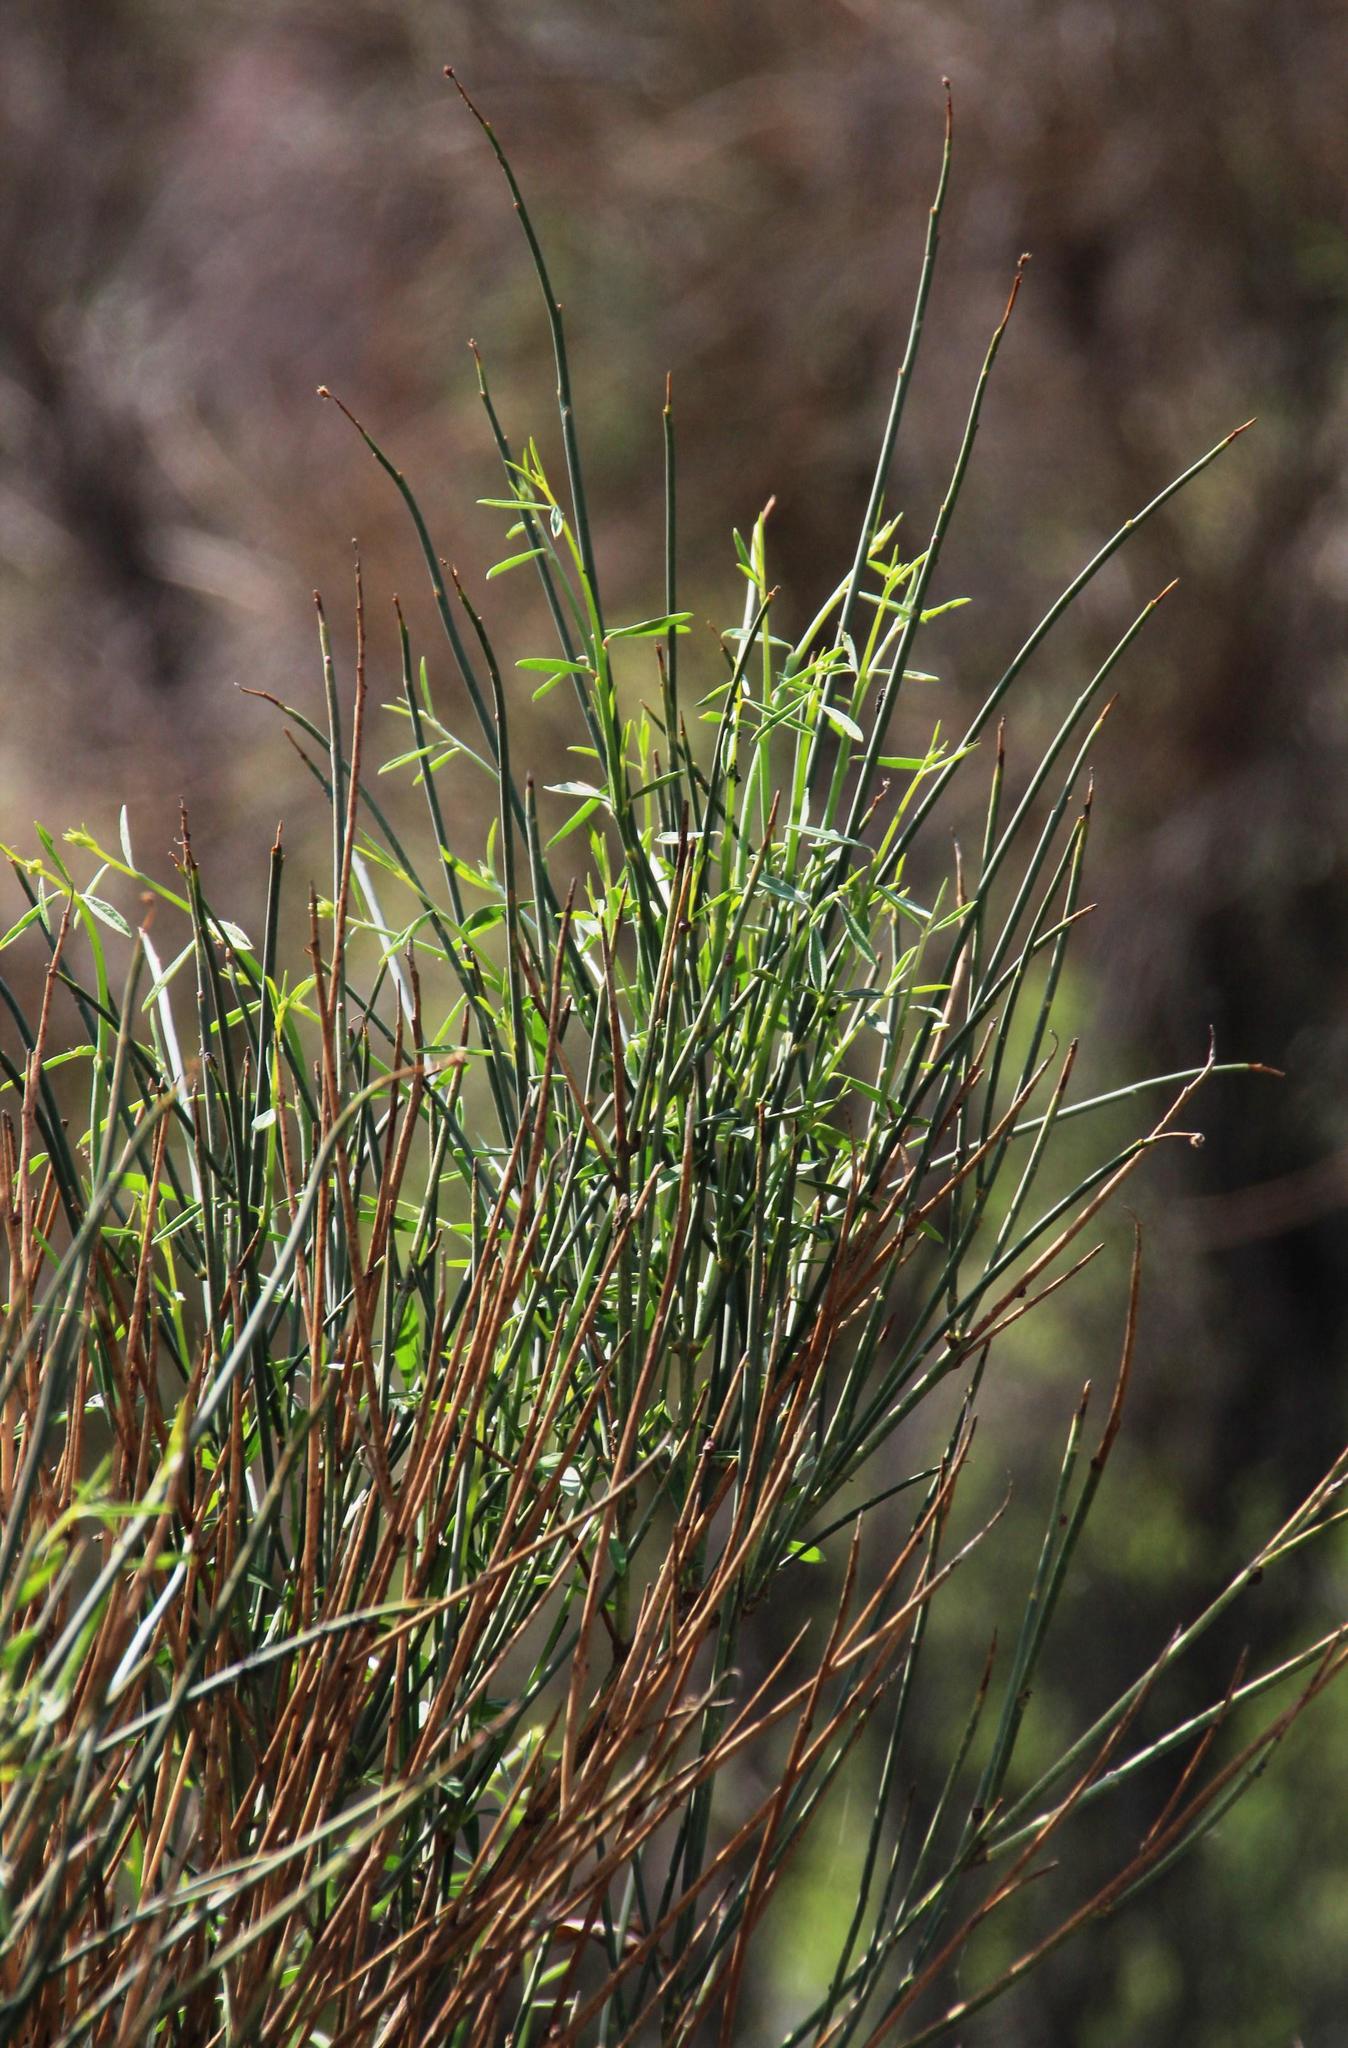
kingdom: Plantae
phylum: Tracheophyta
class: Magnoliopsida
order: Fabales
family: Fabaceae
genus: Spartium
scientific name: Spartium junceum
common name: Spanish broom
